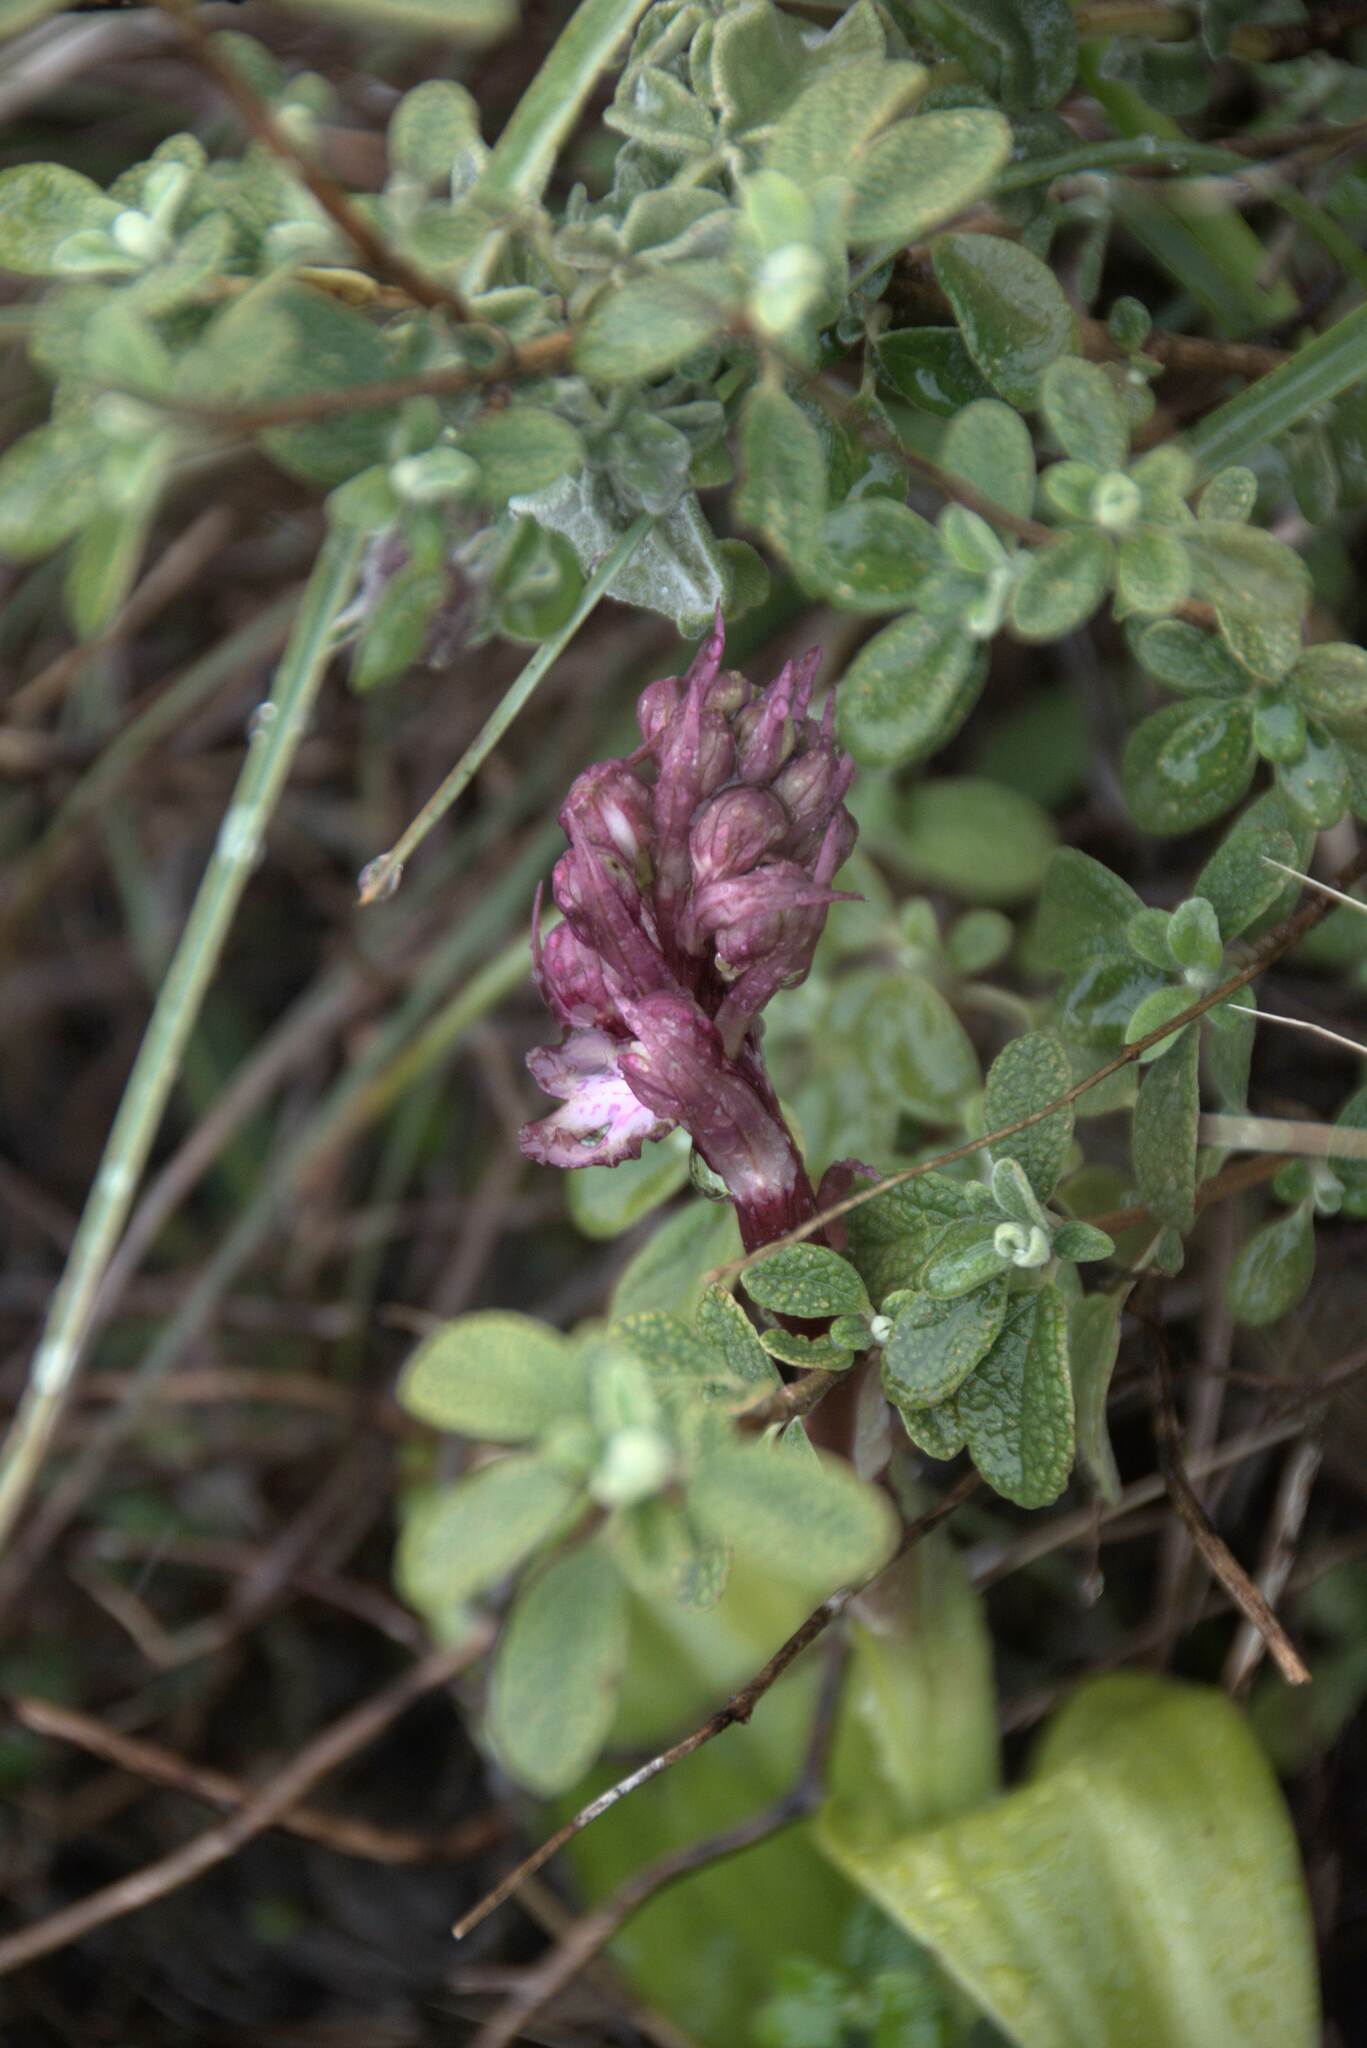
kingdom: Plantae
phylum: Tracheophyta
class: Liliopsida
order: Asparagales
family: Orchidaceae
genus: Himantoglossum
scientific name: Himantoglossum robertianum
